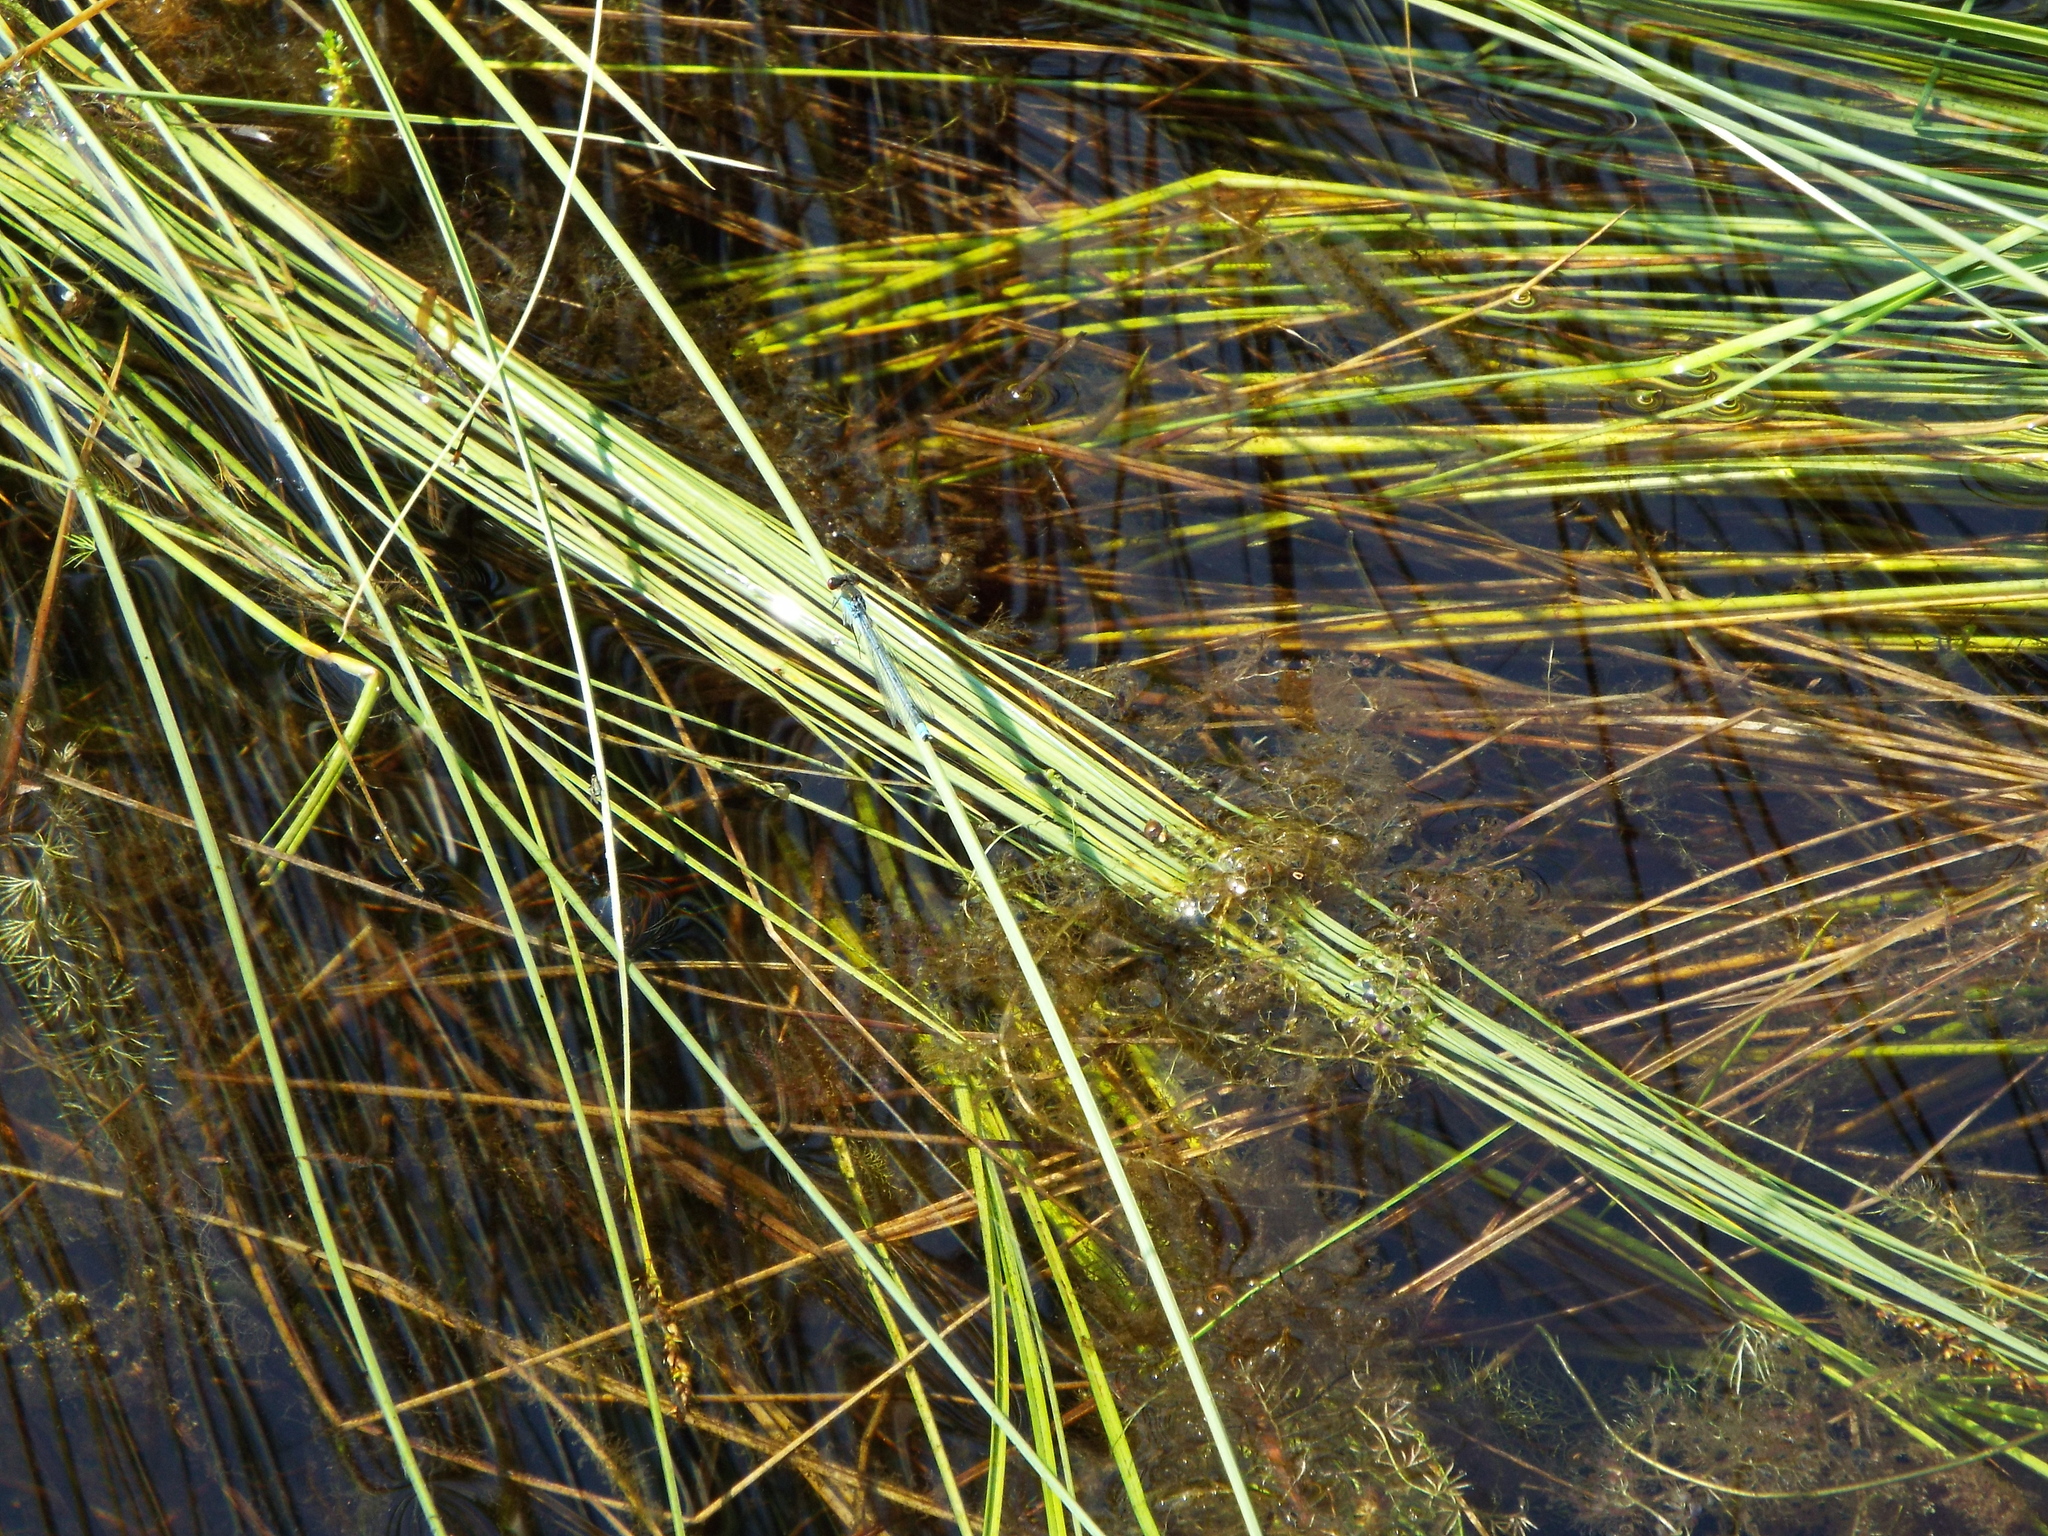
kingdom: Animalia
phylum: Arthropoda
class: Insecta
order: Odonata
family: Coenagrionidae
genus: Erythromma
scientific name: Erythromma najas
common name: Red-eyed damselfly
